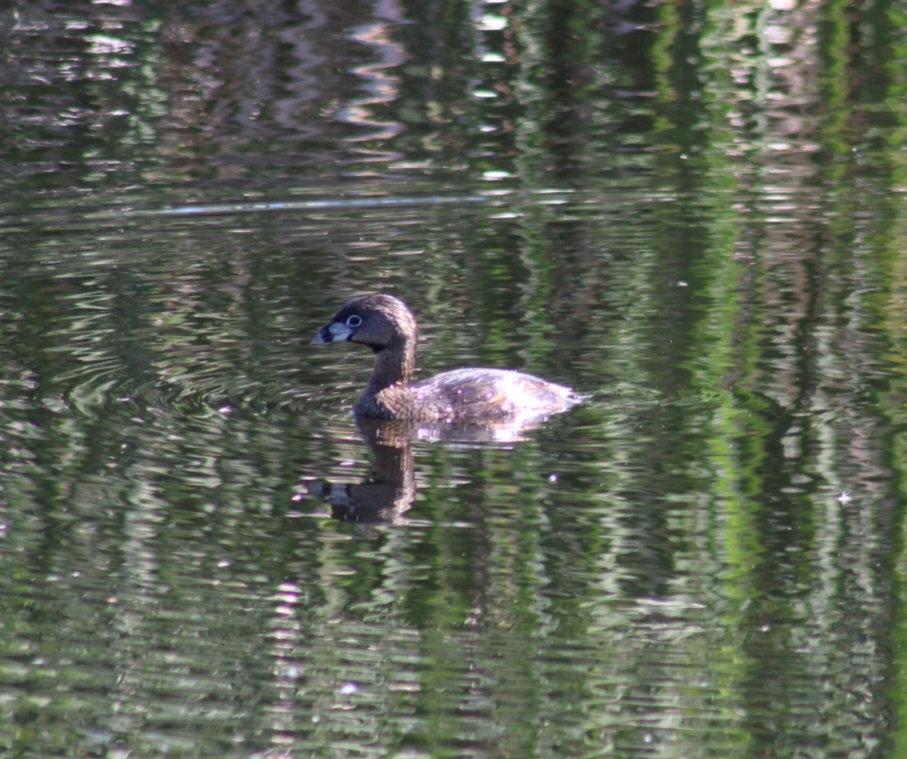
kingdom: Animalia
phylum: Chordata
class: Aves
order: Podicipediformes
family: Podicipedidae
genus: Podilymbus
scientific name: Podilymbus podiceps
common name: Pied-billed grebe
